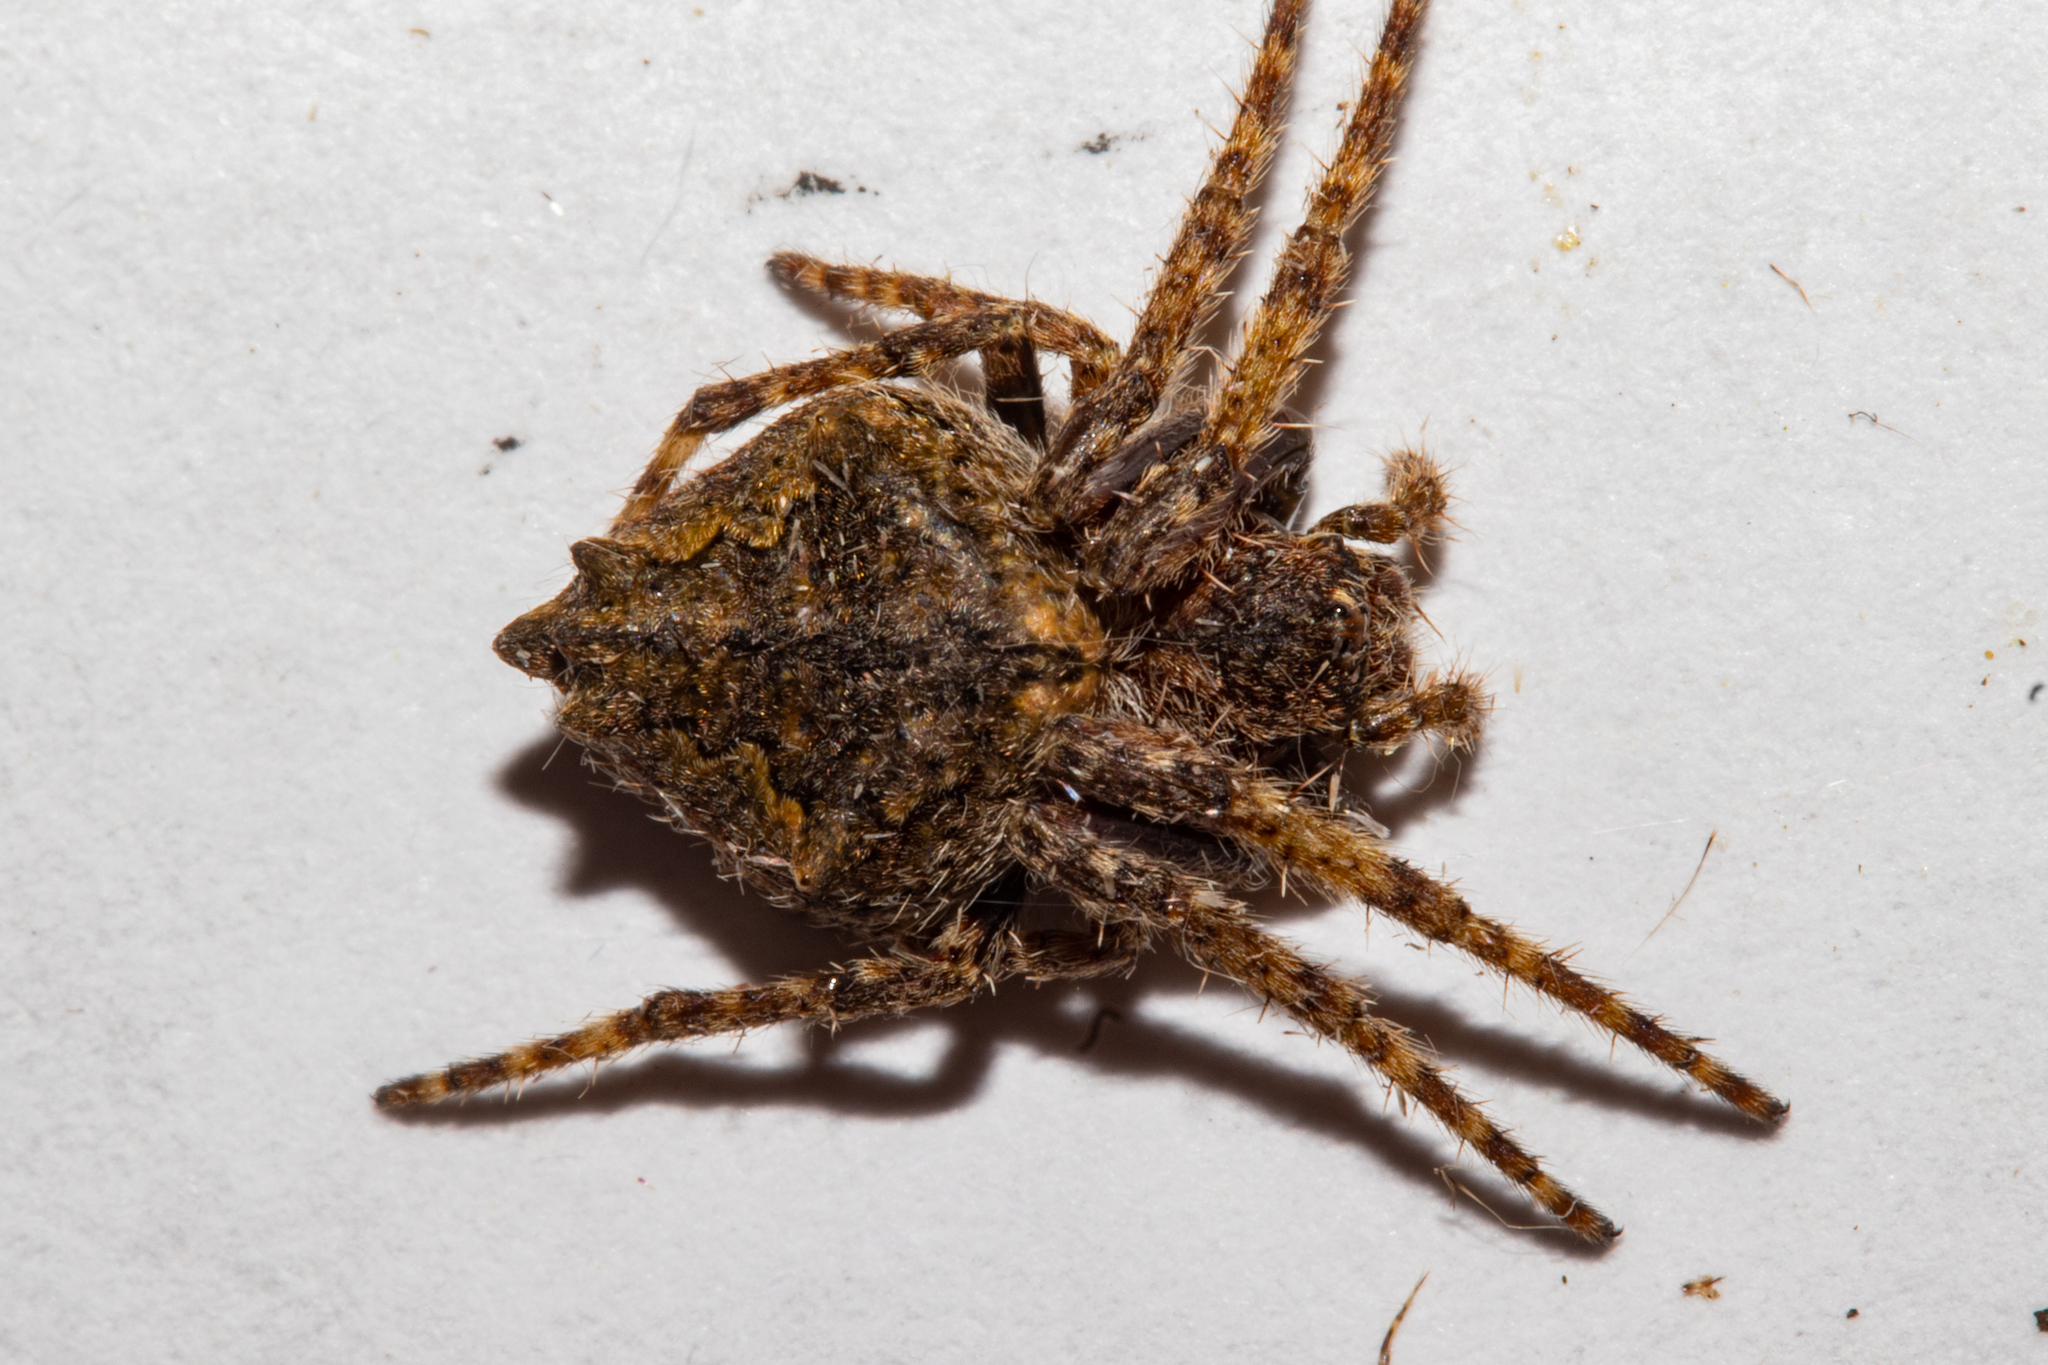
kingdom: Animalia
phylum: Arthropoda
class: Arachnida
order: Araneae
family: Araneidae
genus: Eriophora
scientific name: Eriophora pustulosa
